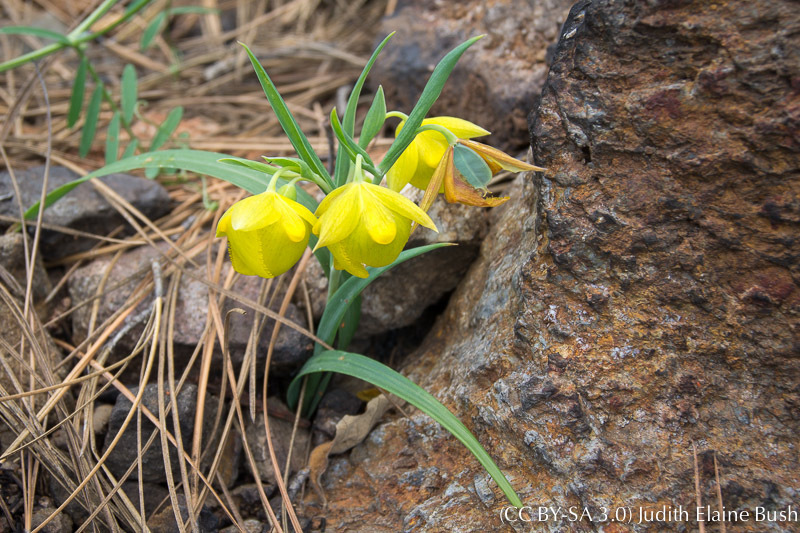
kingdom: Plantae
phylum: Tracheophyta
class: Liliopsida
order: Liliales
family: Liliaceae
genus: Calochortus
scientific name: Calochortus pulchellus
